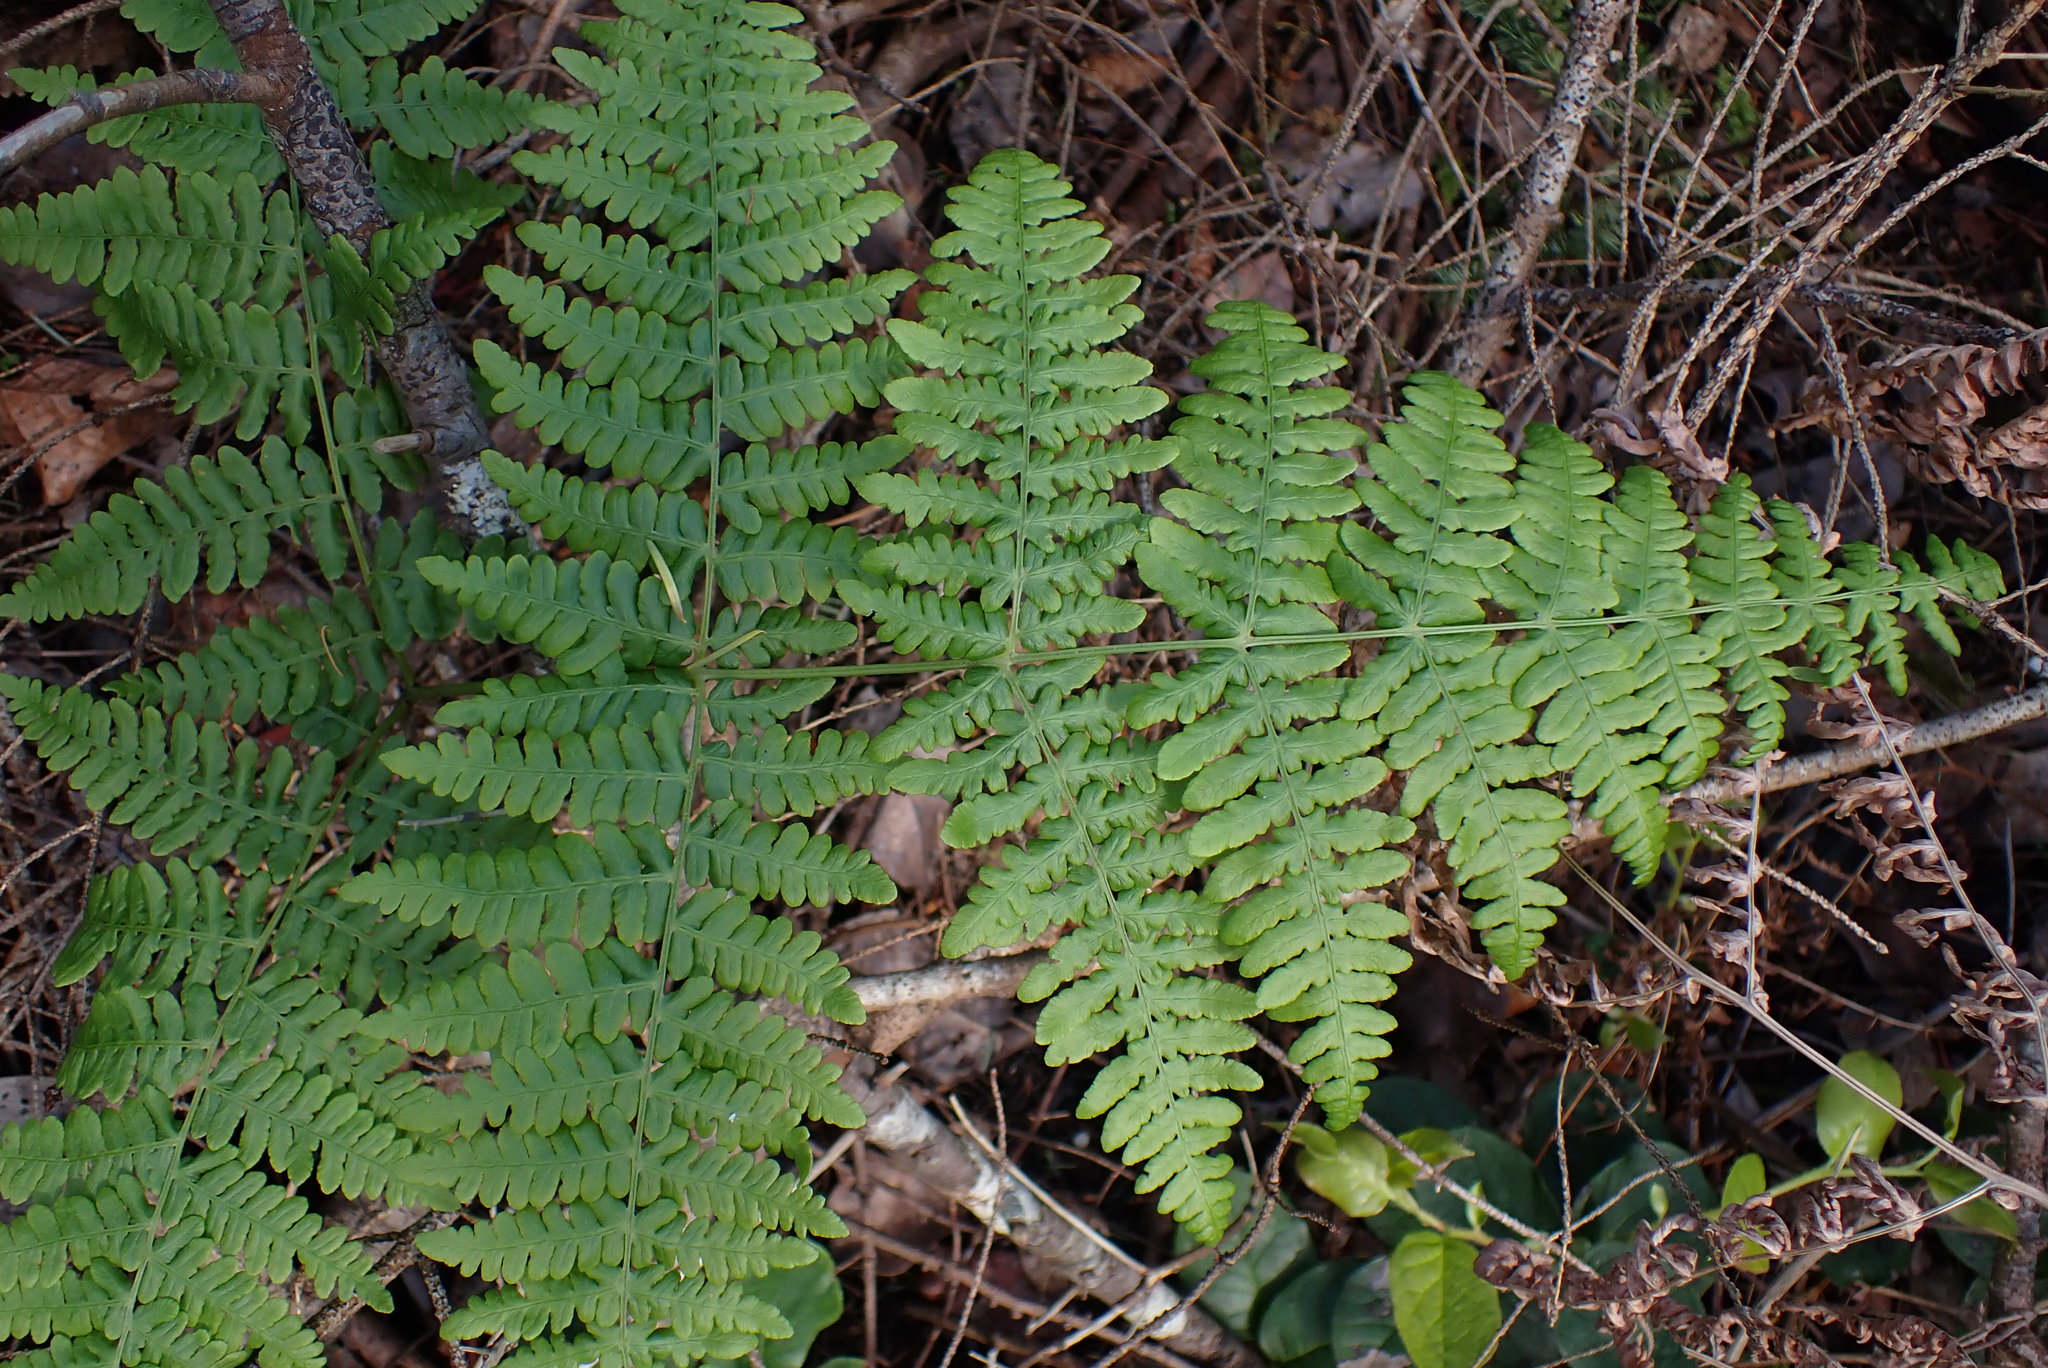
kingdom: Plantae
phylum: Tracheophyta
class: Polypodiopsida
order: Polypodiales
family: Dennstaedtiaceae
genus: Pteridium
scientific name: Pteridium aquilinum
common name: Bracken
